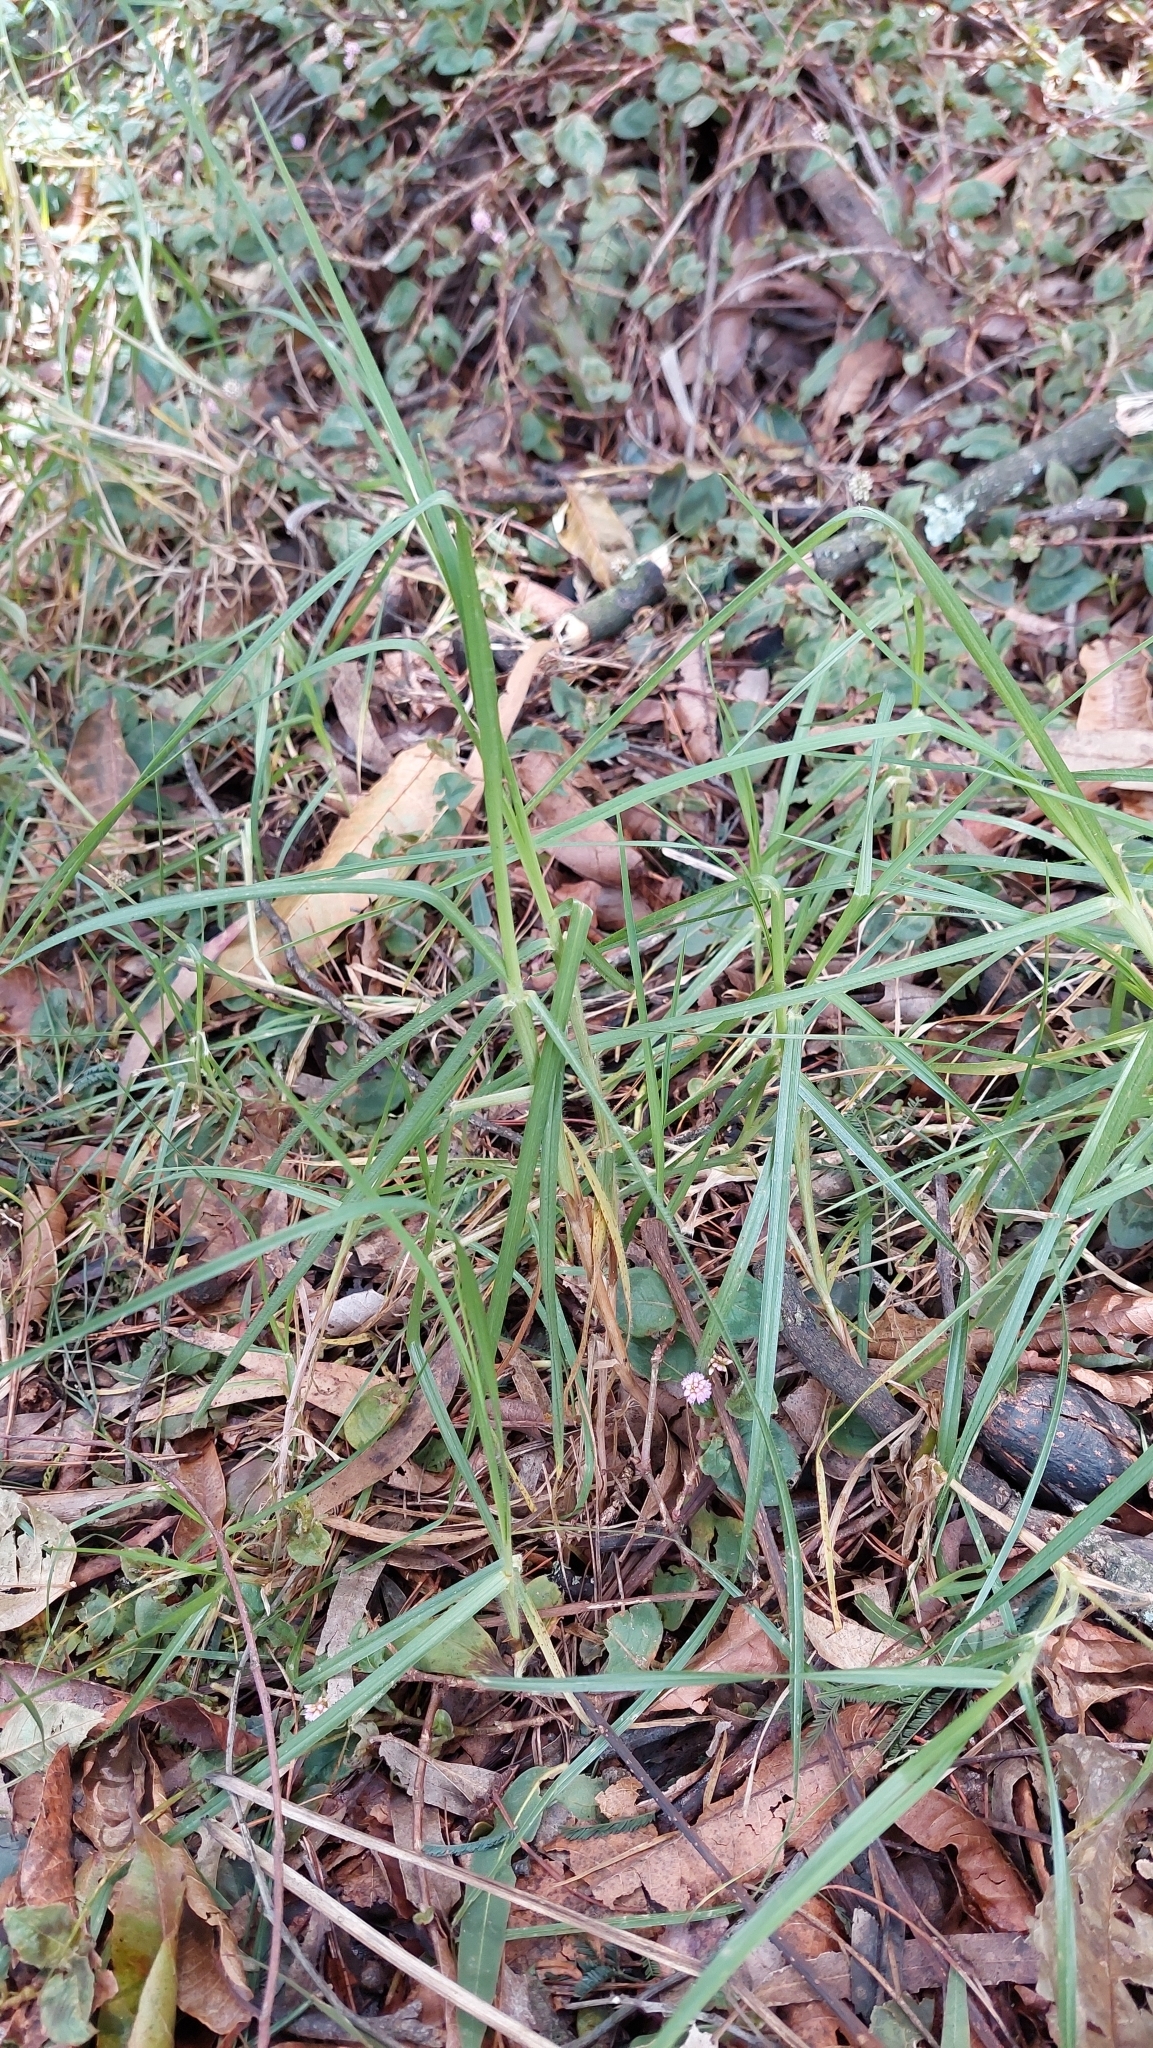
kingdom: Plantae
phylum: Tracheophyta
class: Liliopsida
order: Poales
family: Poaceae
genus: Cenchrus
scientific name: Cenchrus clandestinus
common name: Kikuyugrass
